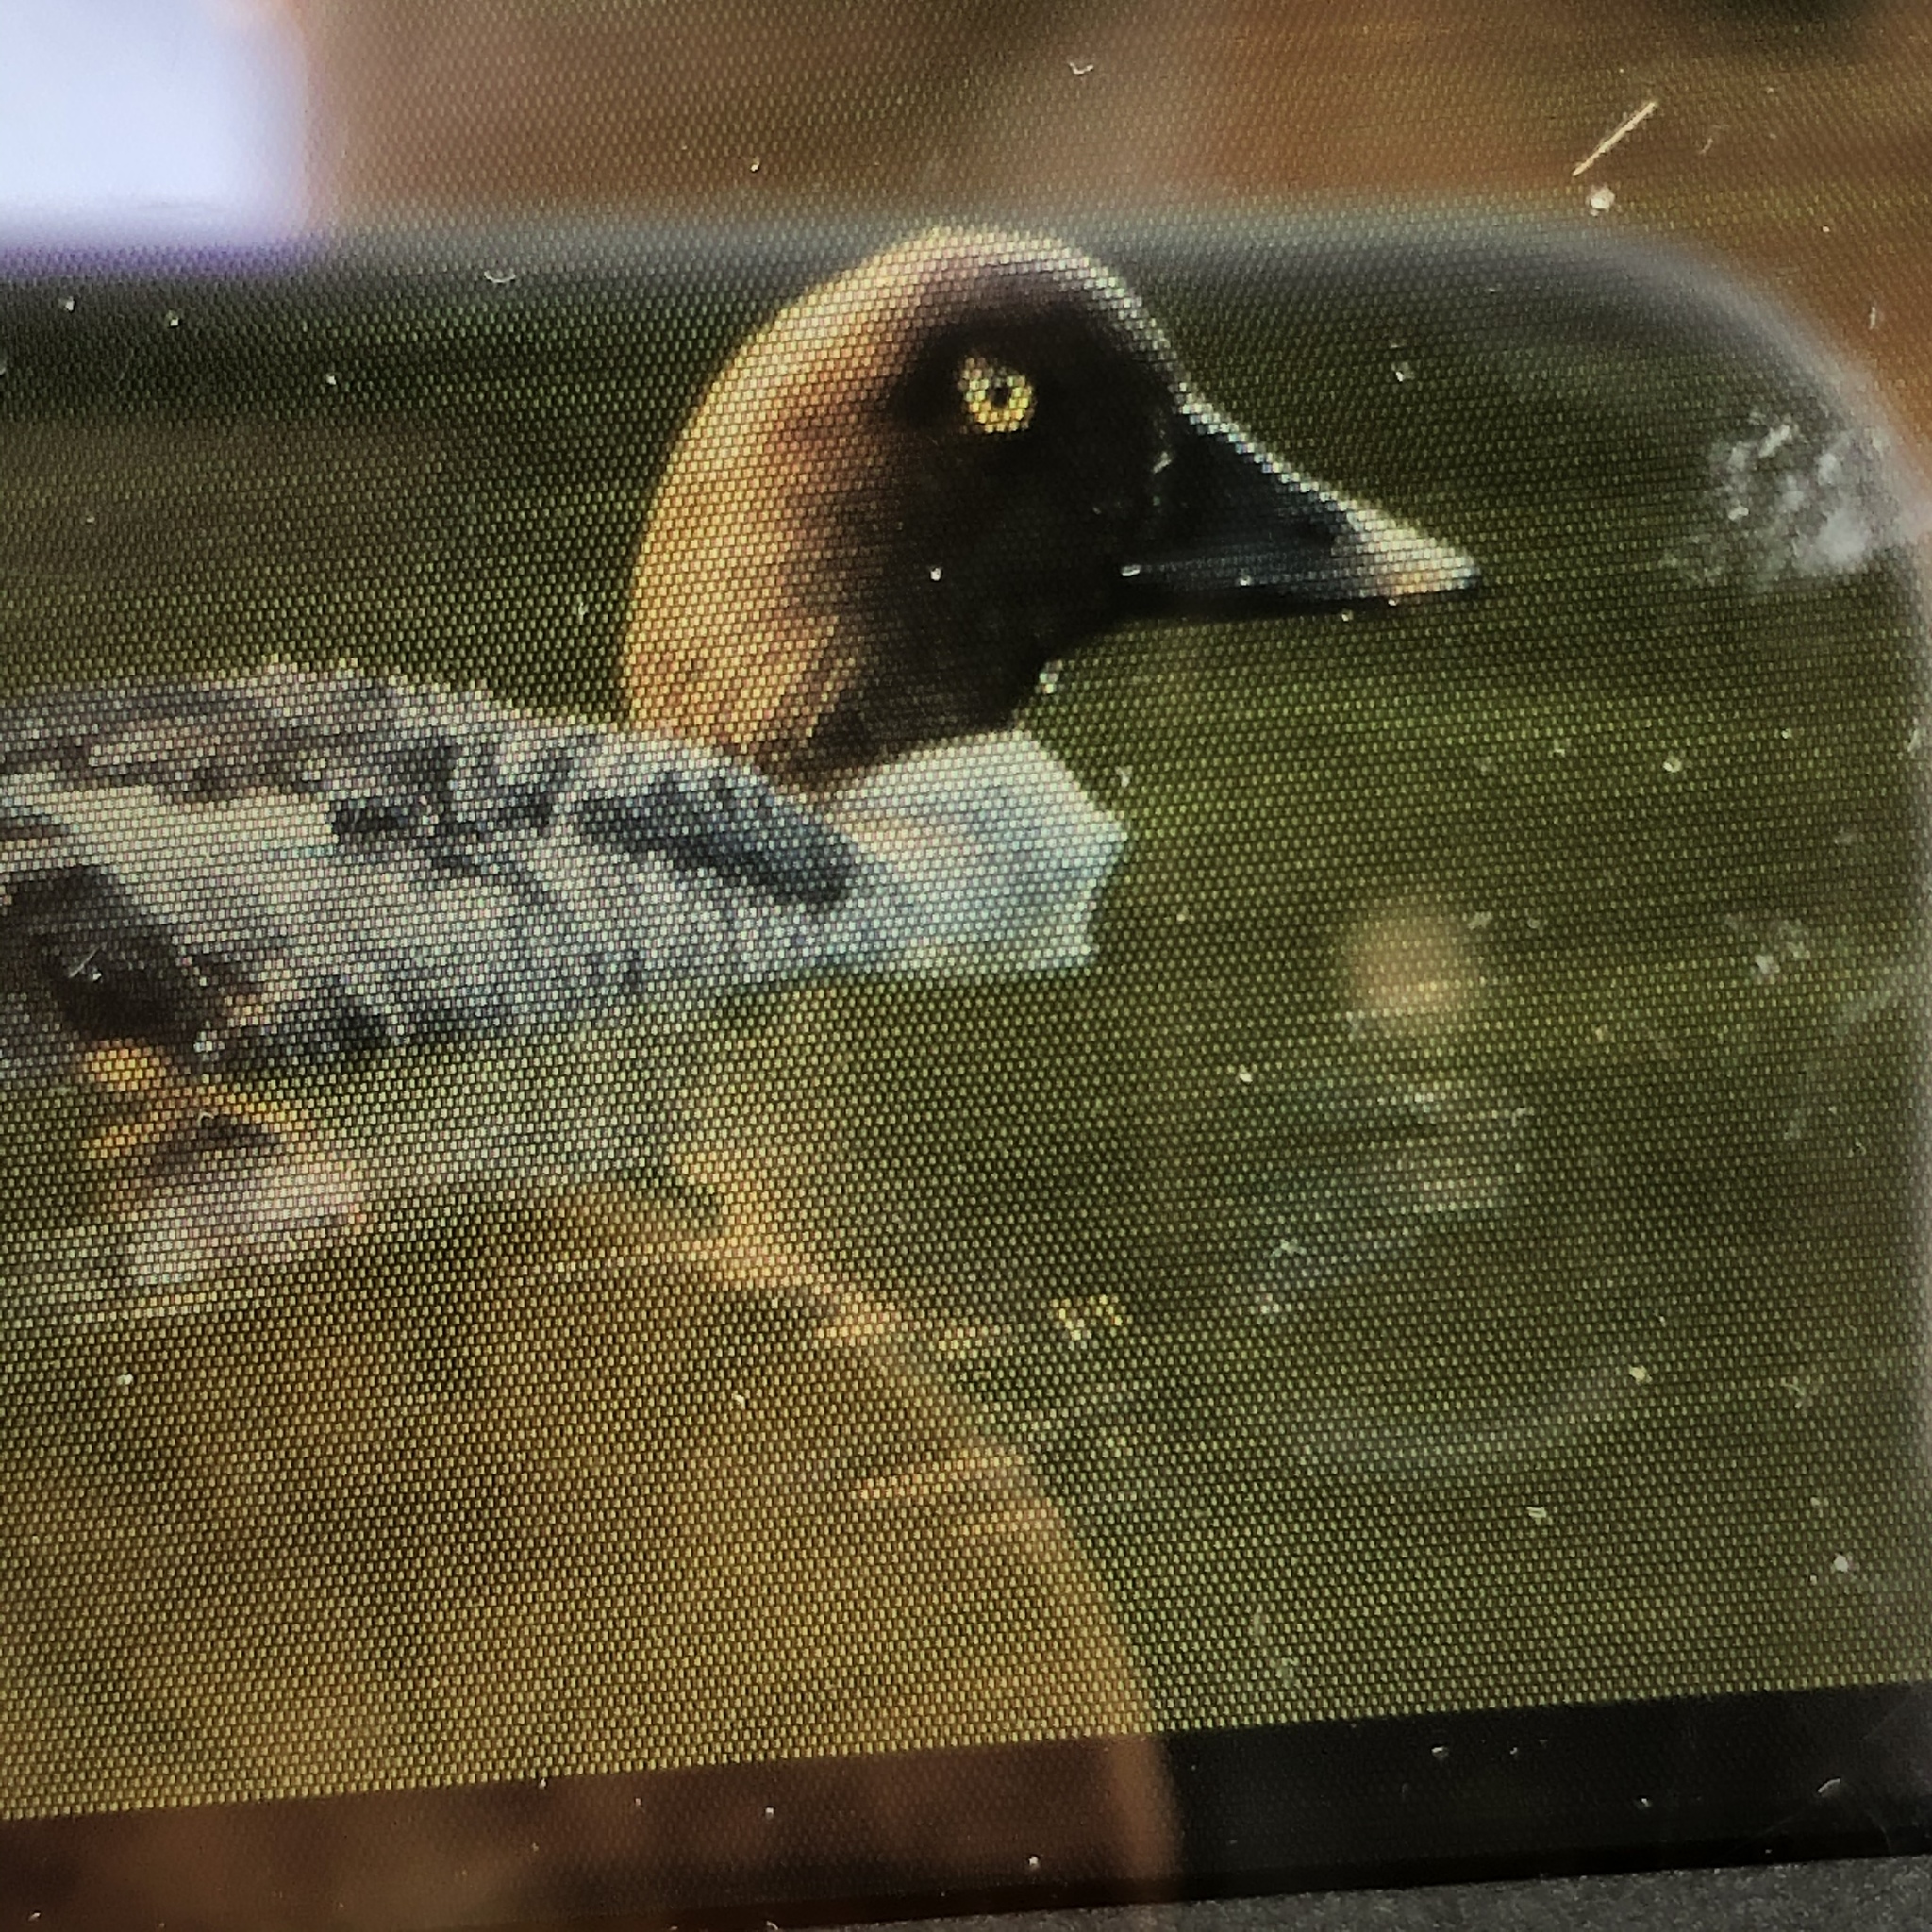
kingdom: Animalia
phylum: Chordata
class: Aves
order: Anseriformes
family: Anatidae
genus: Bucephala
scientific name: Bucephala clangula
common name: Common goldeneye
